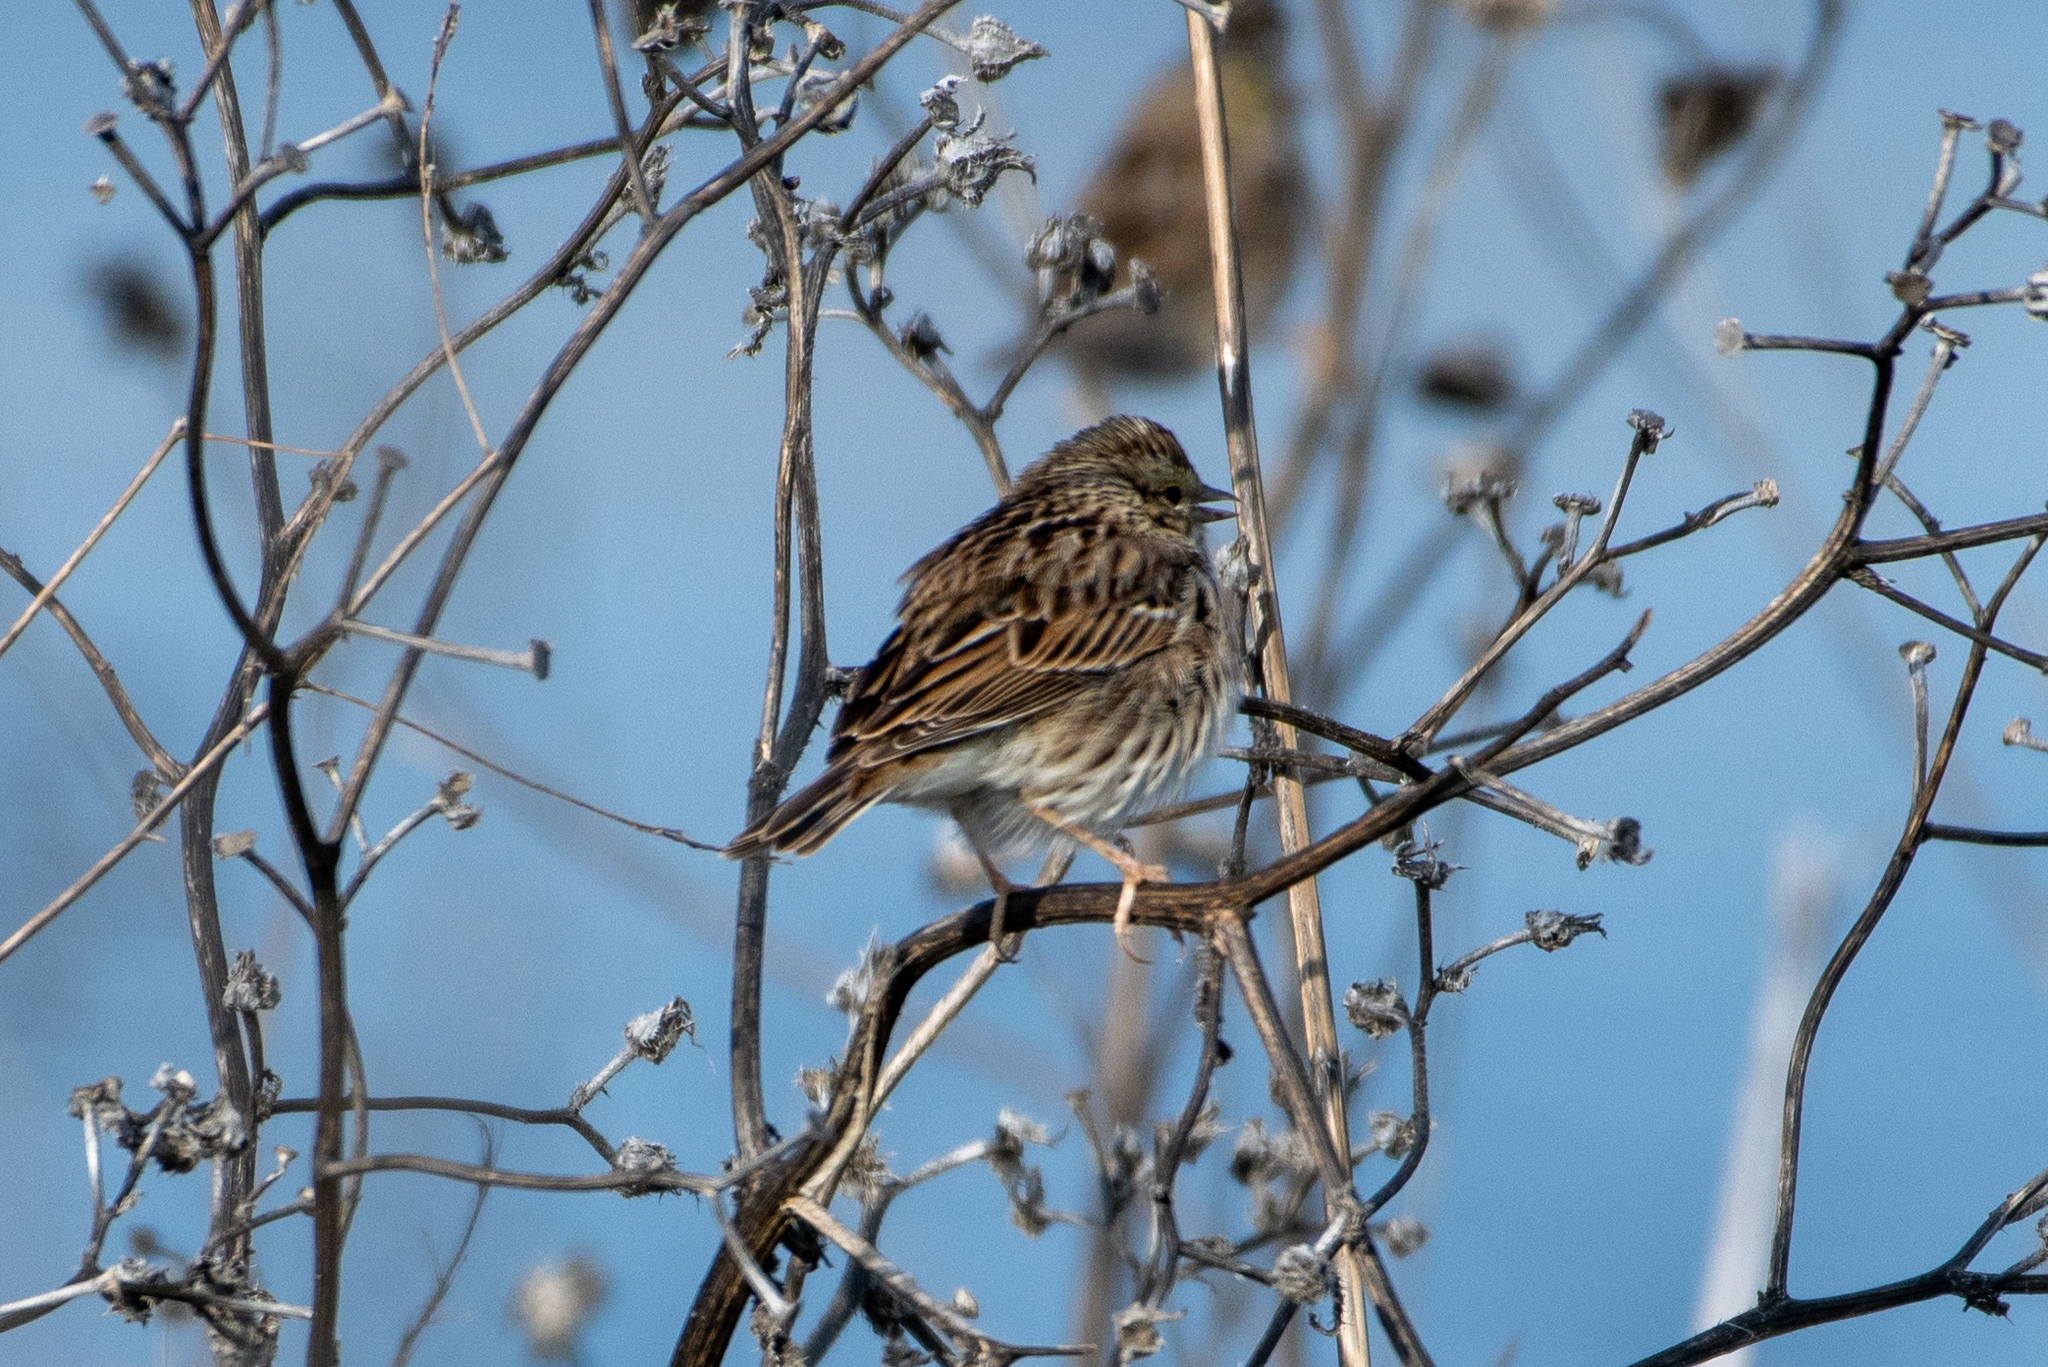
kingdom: Animalia
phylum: Chordata
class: Aves
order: Passeriformes
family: Passerellidae
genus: Passerculus
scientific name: Passerculus sandwichensis
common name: Savannah sparrow
